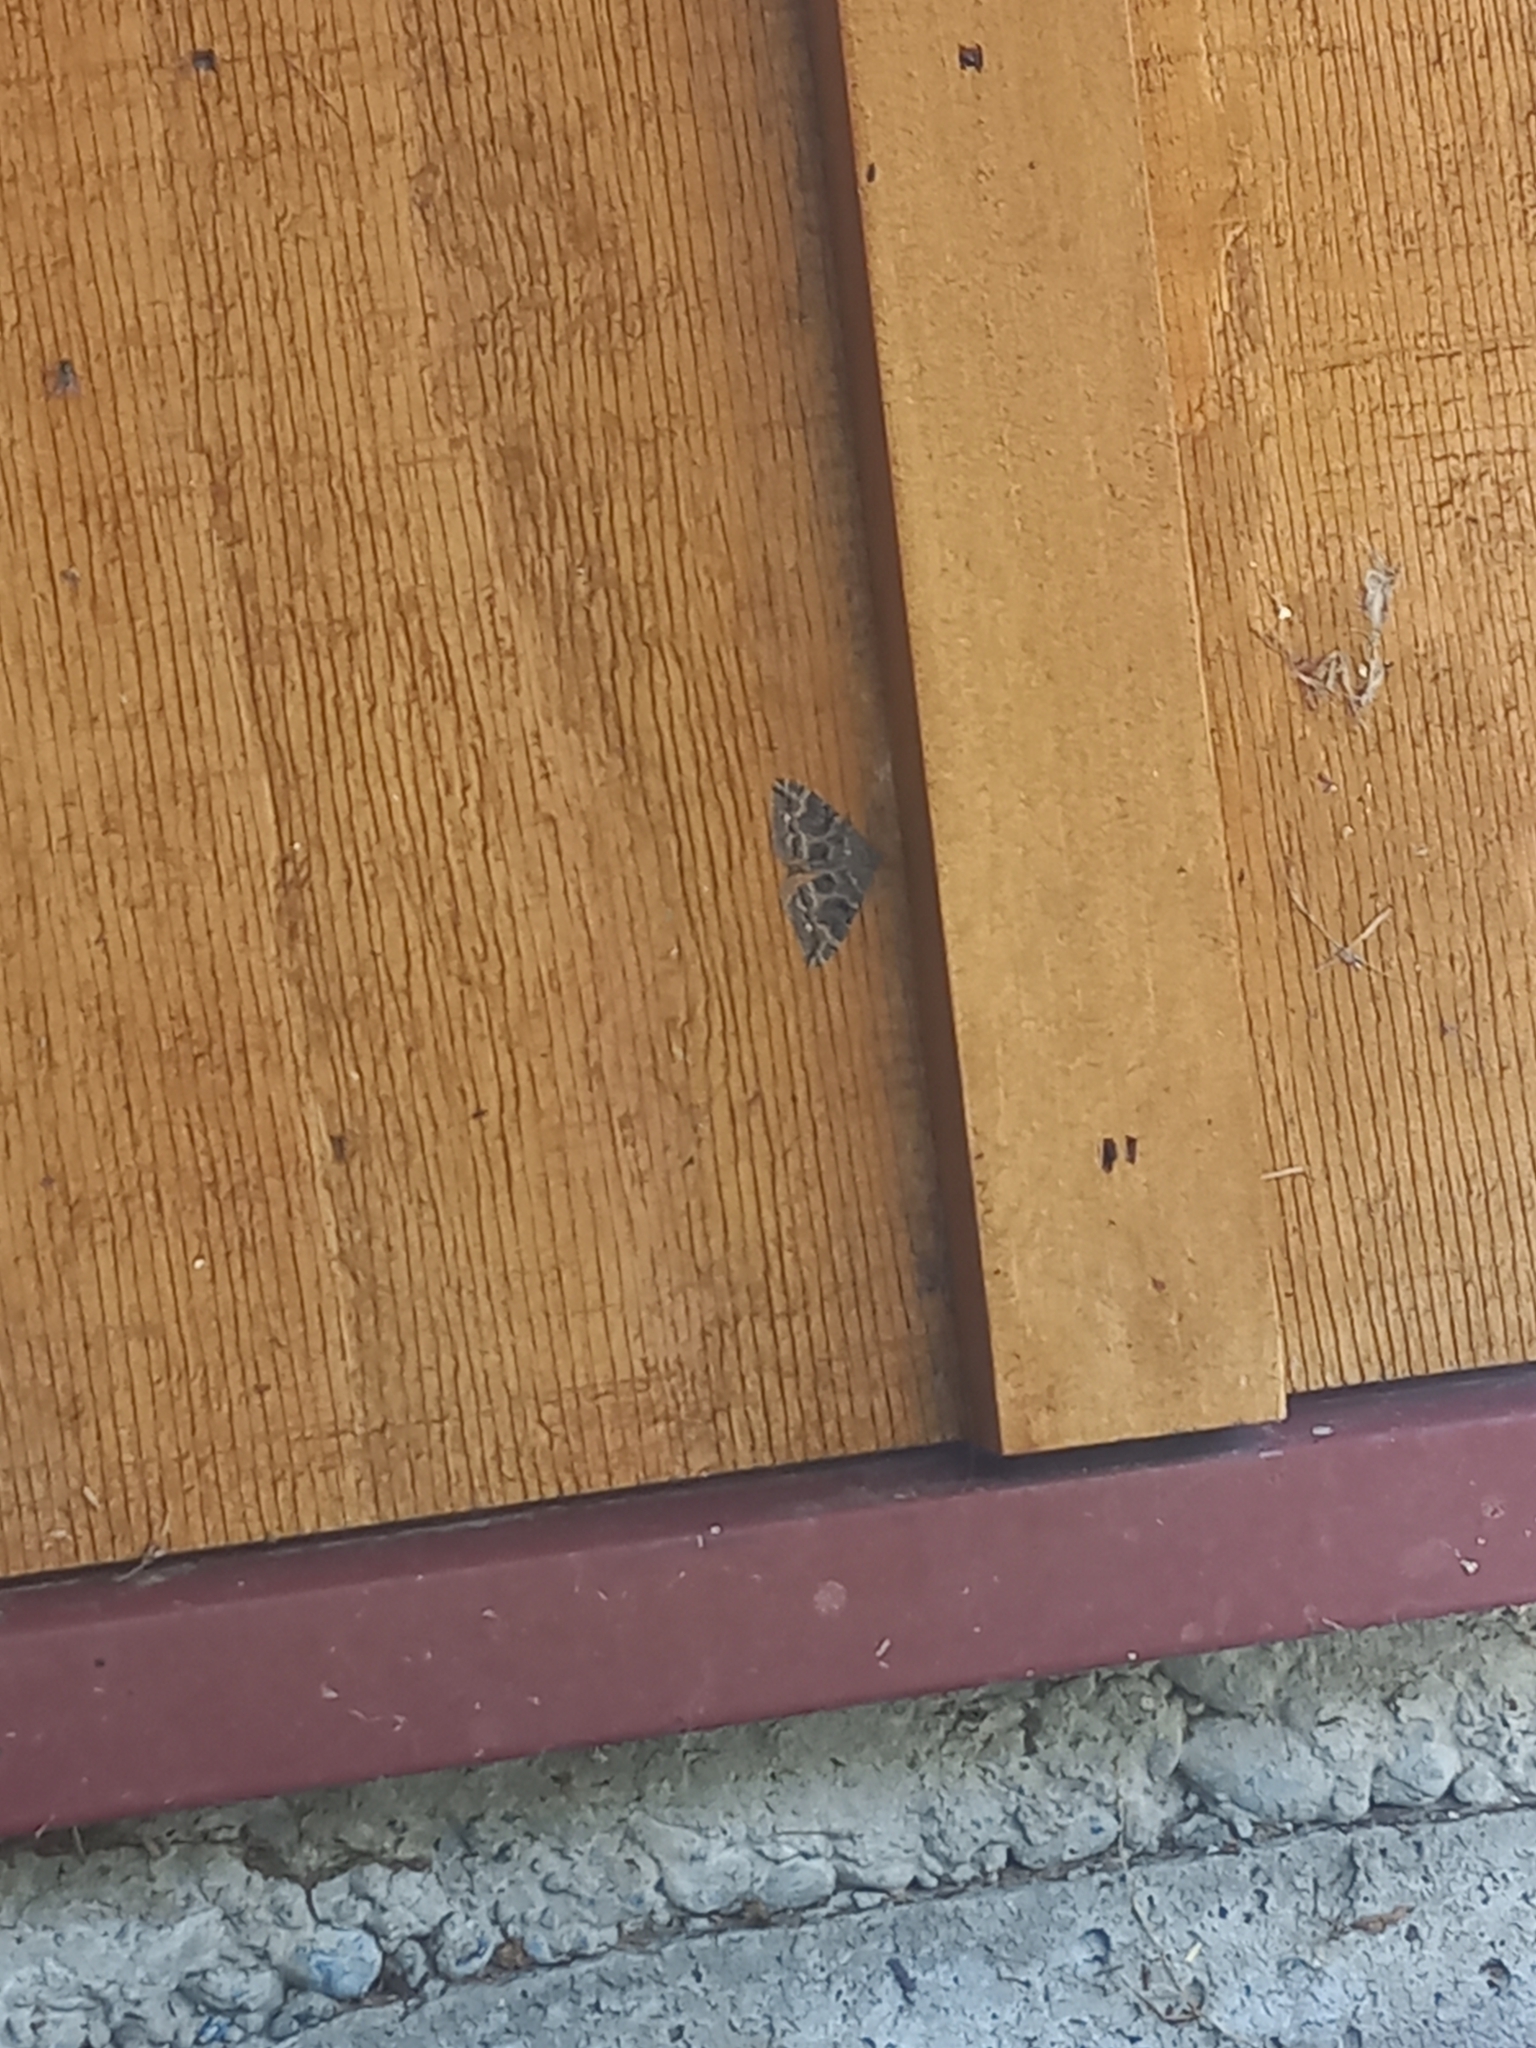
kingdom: Animalia
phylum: Arthropoda
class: Insecta
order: Lepidoptera
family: Geometridae
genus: Hydriomena
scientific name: Hydriomena deltoidata
